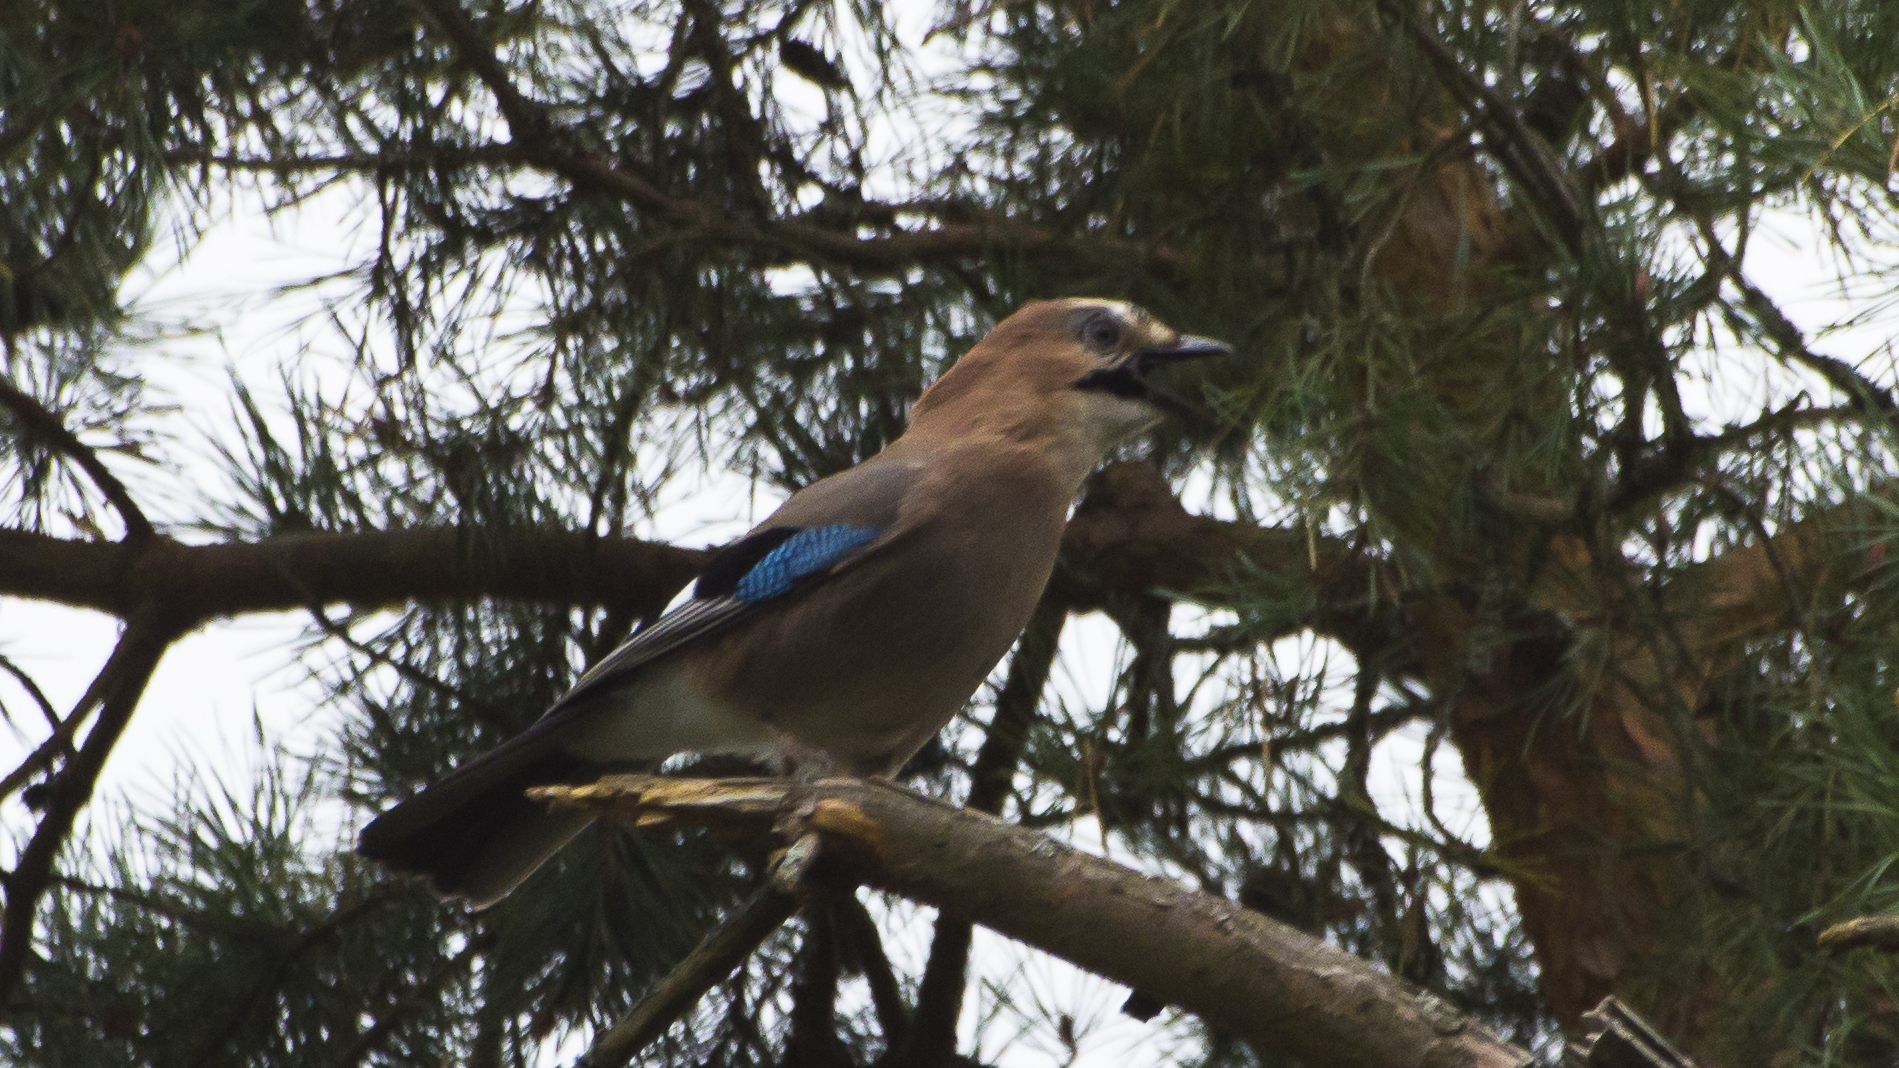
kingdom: Animalia
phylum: Chordata
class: Aves
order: Passeriformes
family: Corvidae
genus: Garrulus
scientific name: Garrulus glandarius
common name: Eurasian jay
